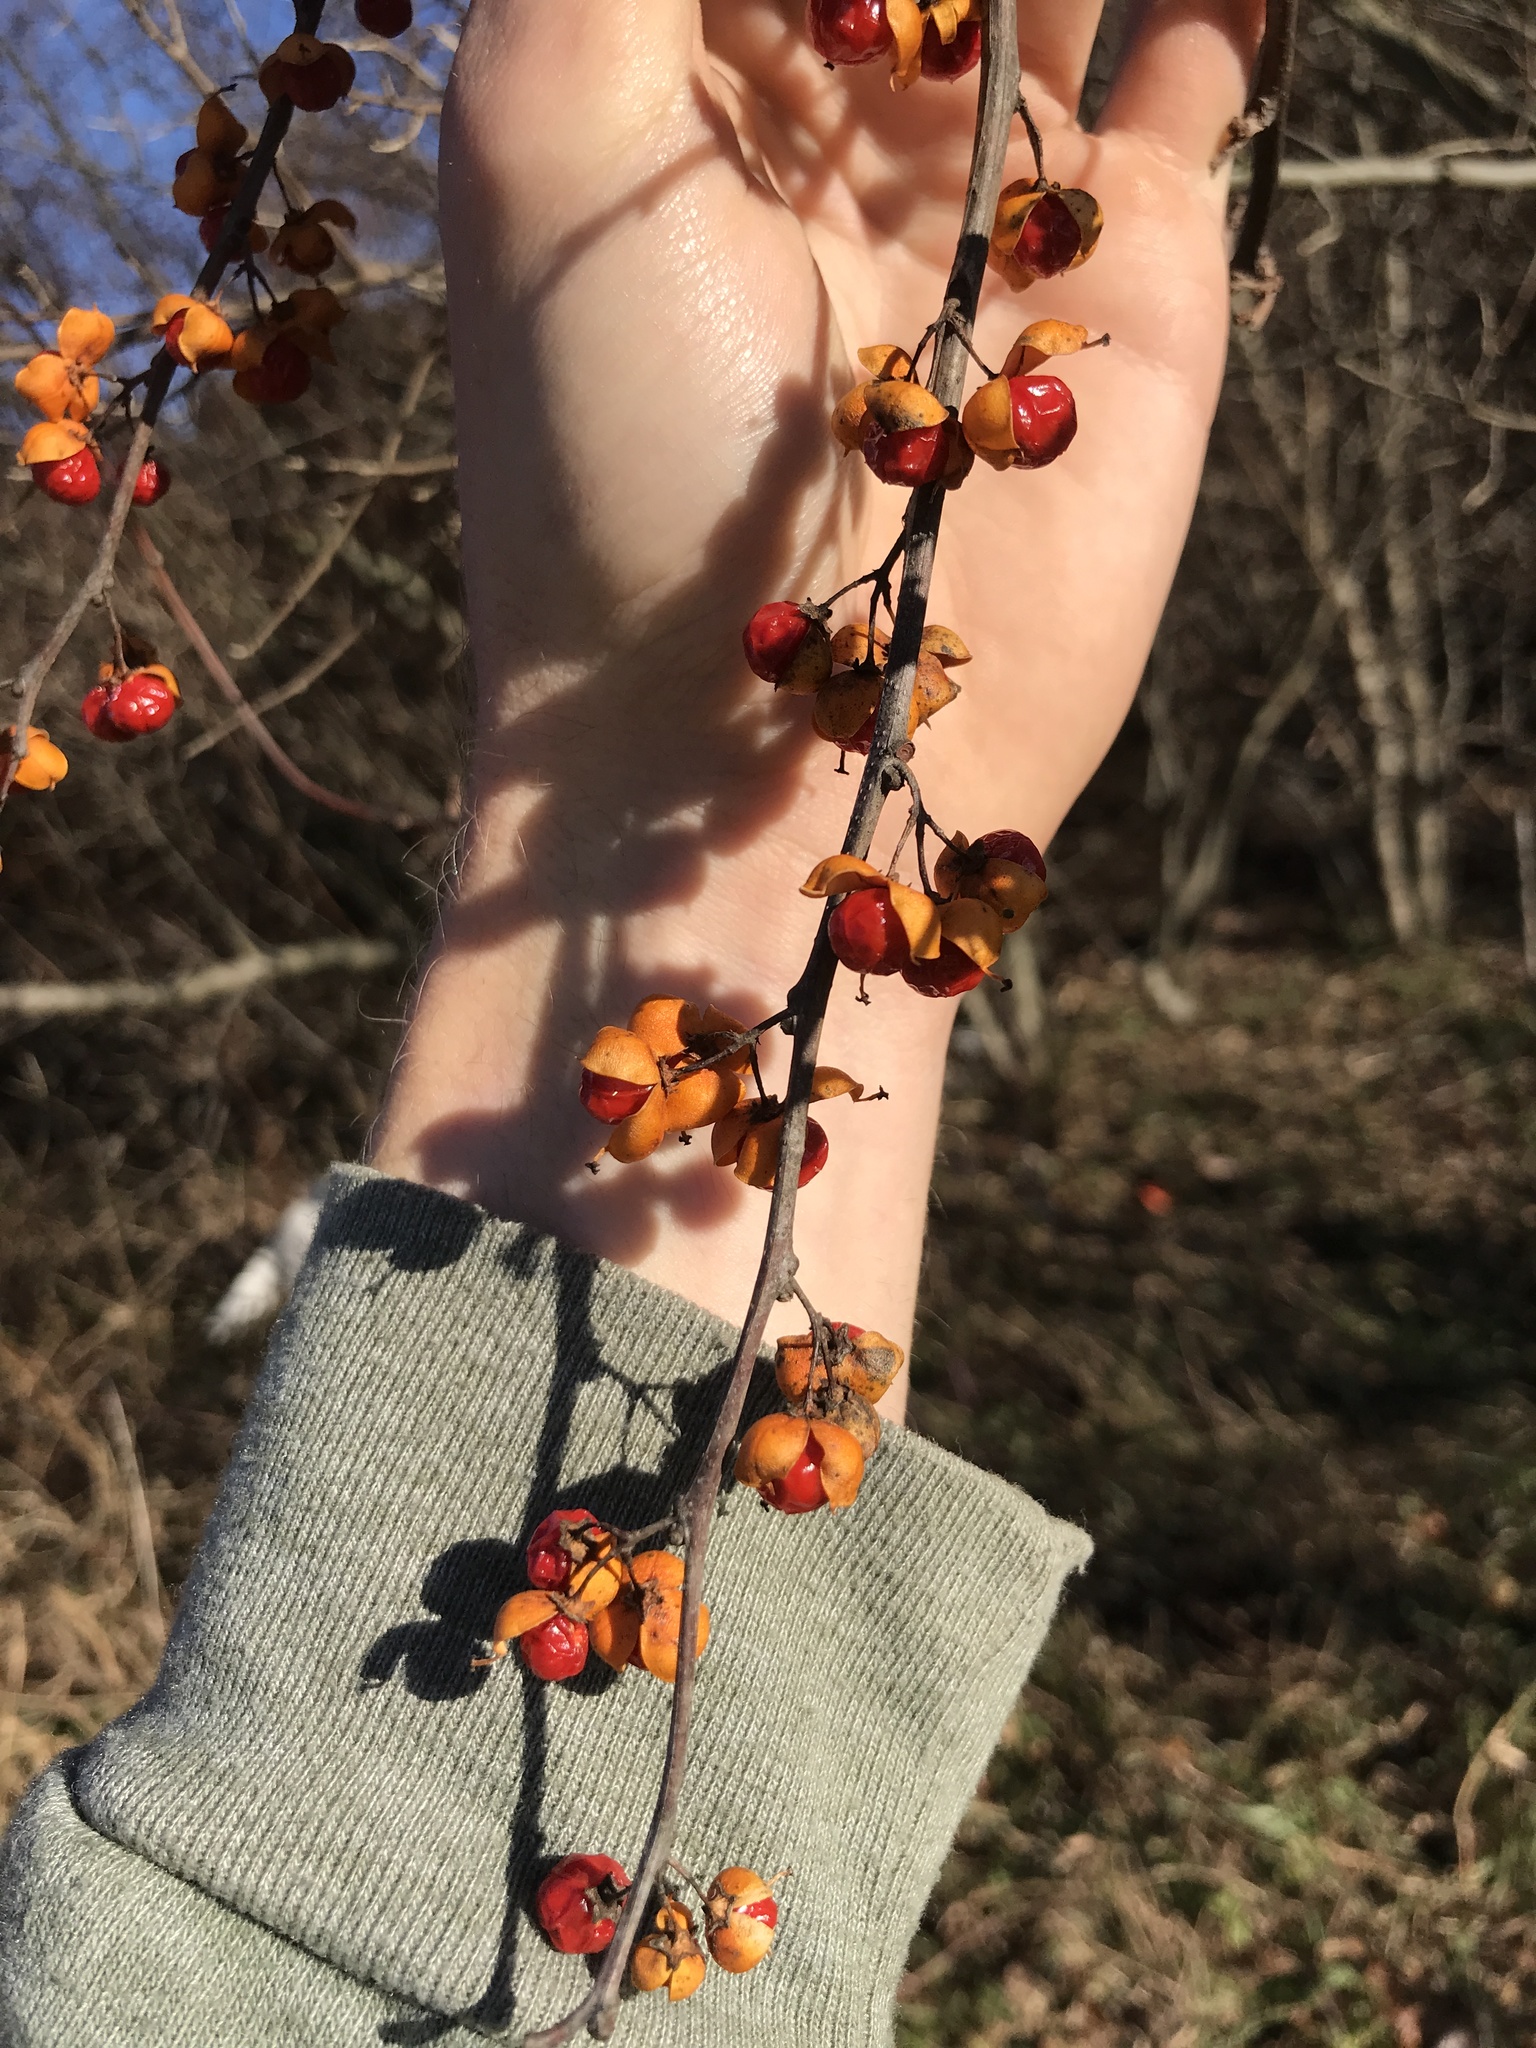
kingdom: Plantae
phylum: Tracheophyta
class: Magnoliopsida
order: Celastrales
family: Celastraceae
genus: Celastrus
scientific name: Celastrus orbiculatus
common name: Oriental bittersweet
